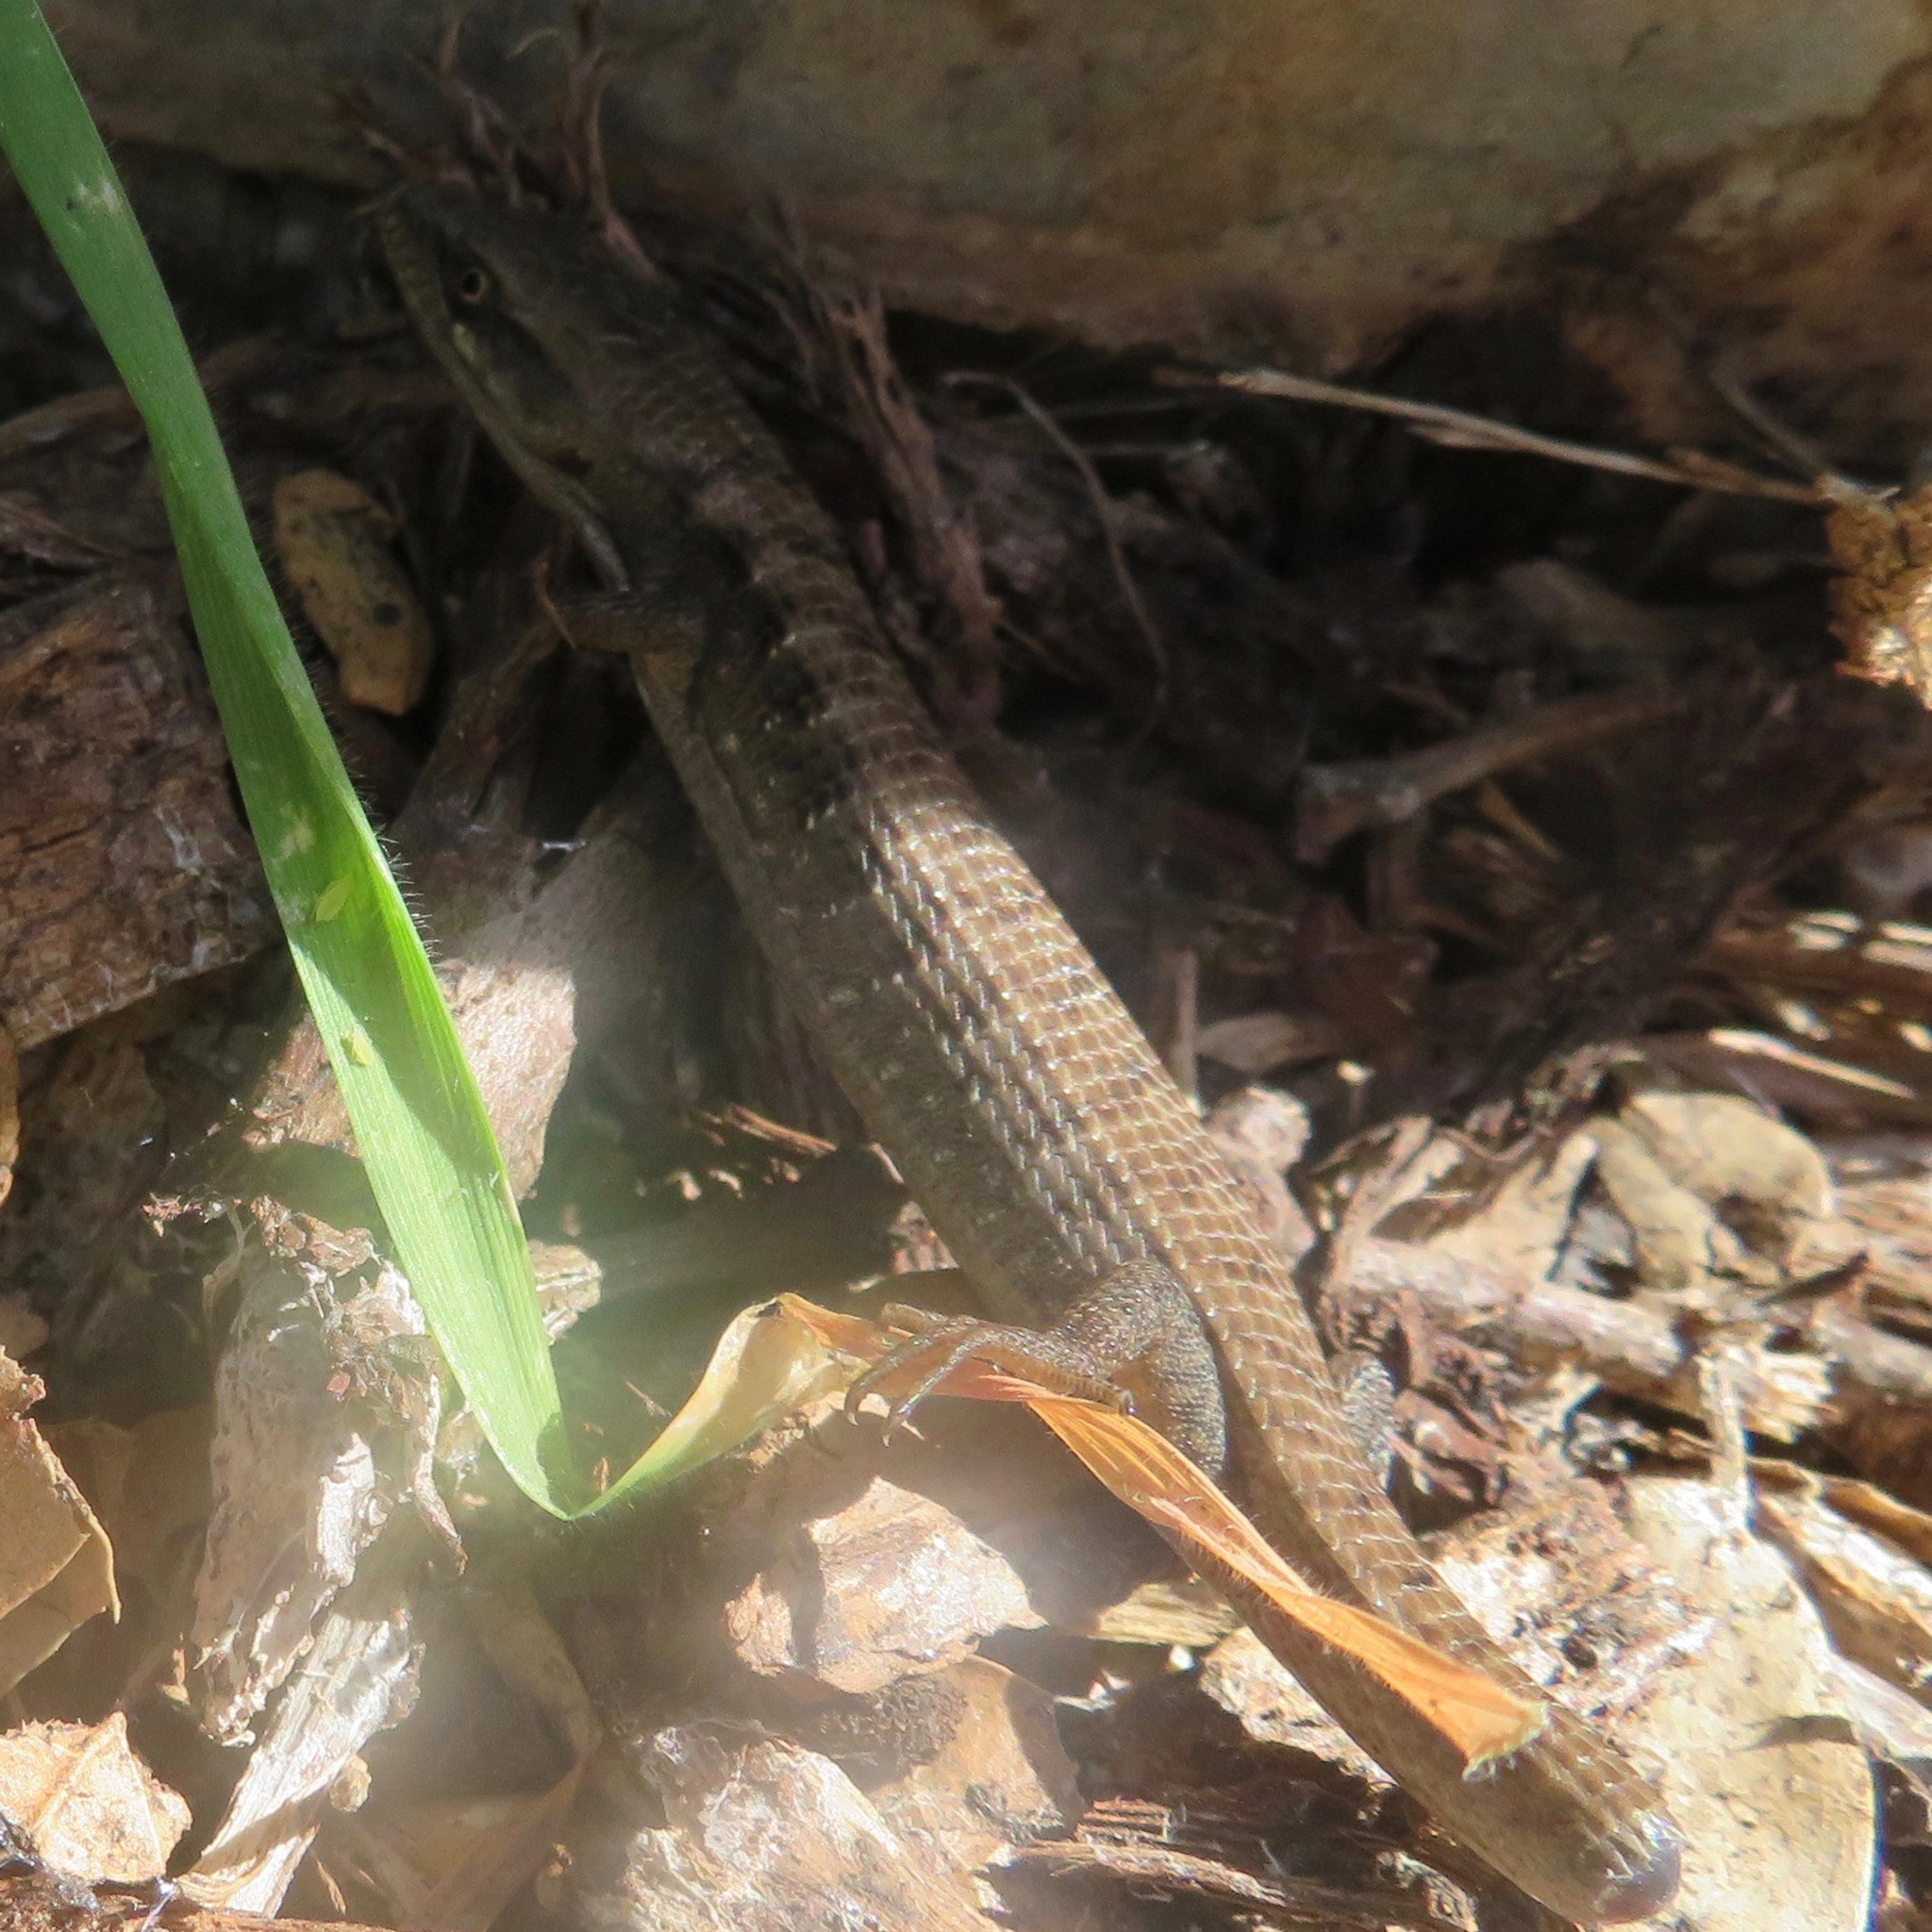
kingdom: Animalia
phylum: Chordata
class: Squamata
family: Anguidae
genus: Elgaria
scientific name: Elgaria multicarinata
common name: Southern alligator lizard
